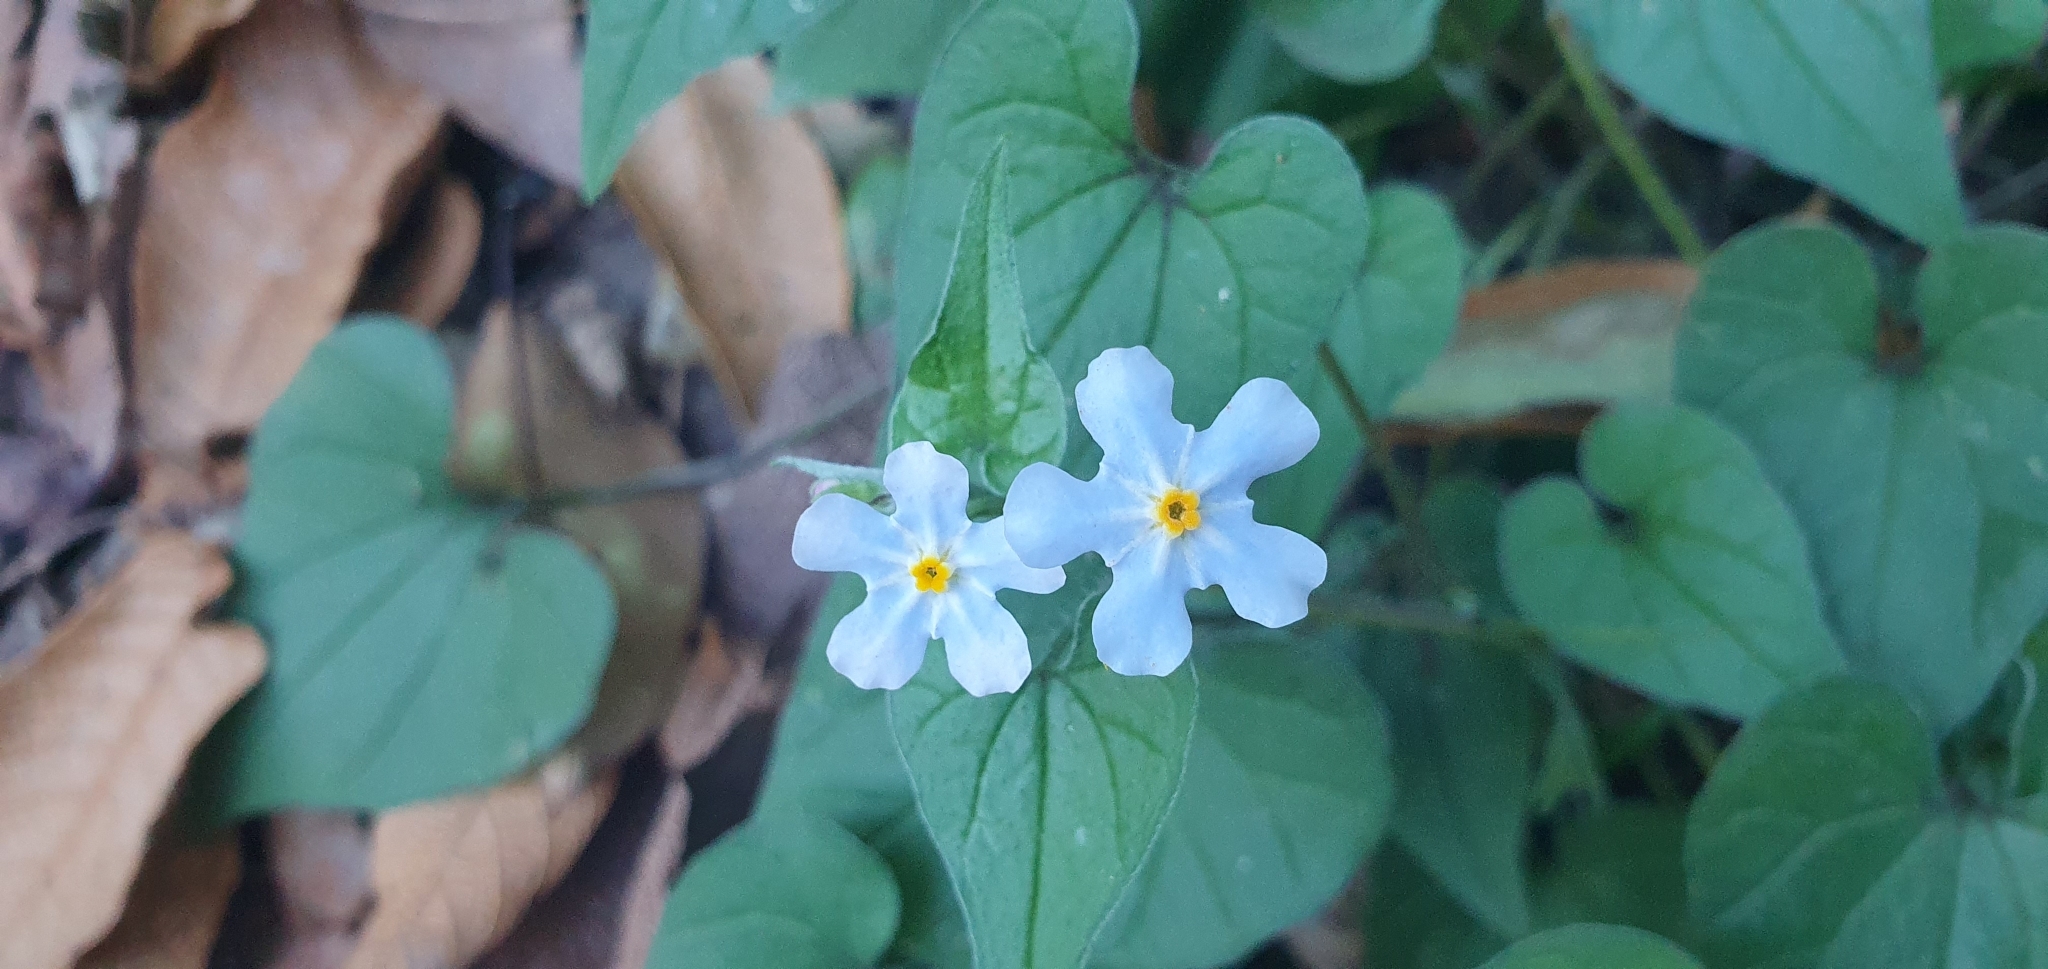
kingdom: Plantae
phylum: Tracheophyta
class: Magnoliopsida
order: Boraginales
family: Boraginaceae
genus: Mimophytum
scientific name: Mimophytum cardiophyllum
